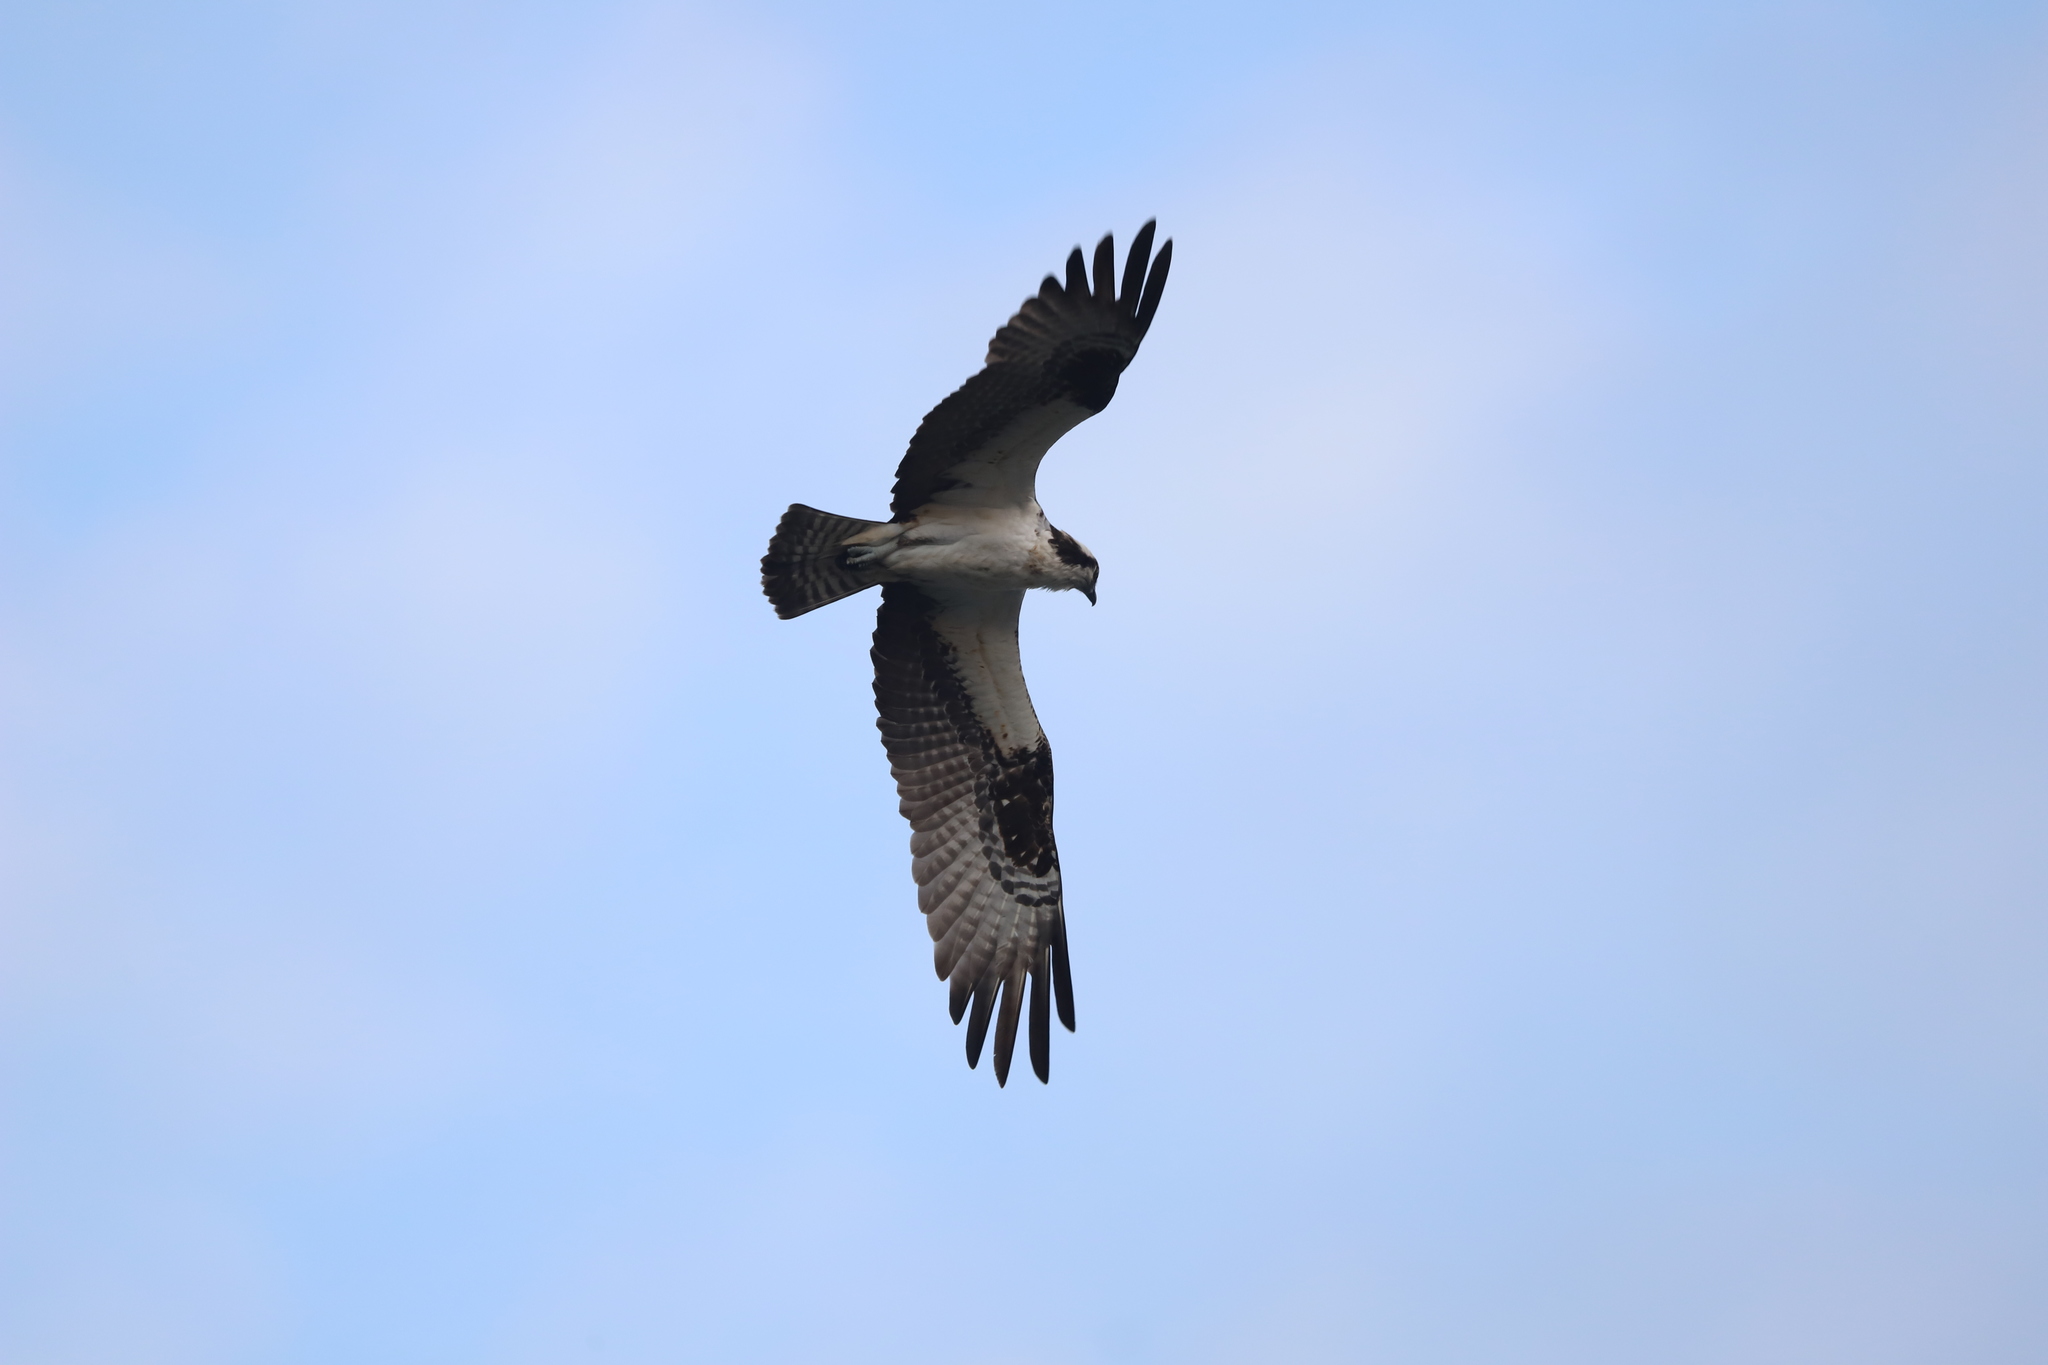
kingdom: Animalia
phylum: Chordata
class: Aves
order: Accipitriformes
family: Pandionidae
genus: Pandion
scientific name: Pandion haliaetus
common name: Osprey
